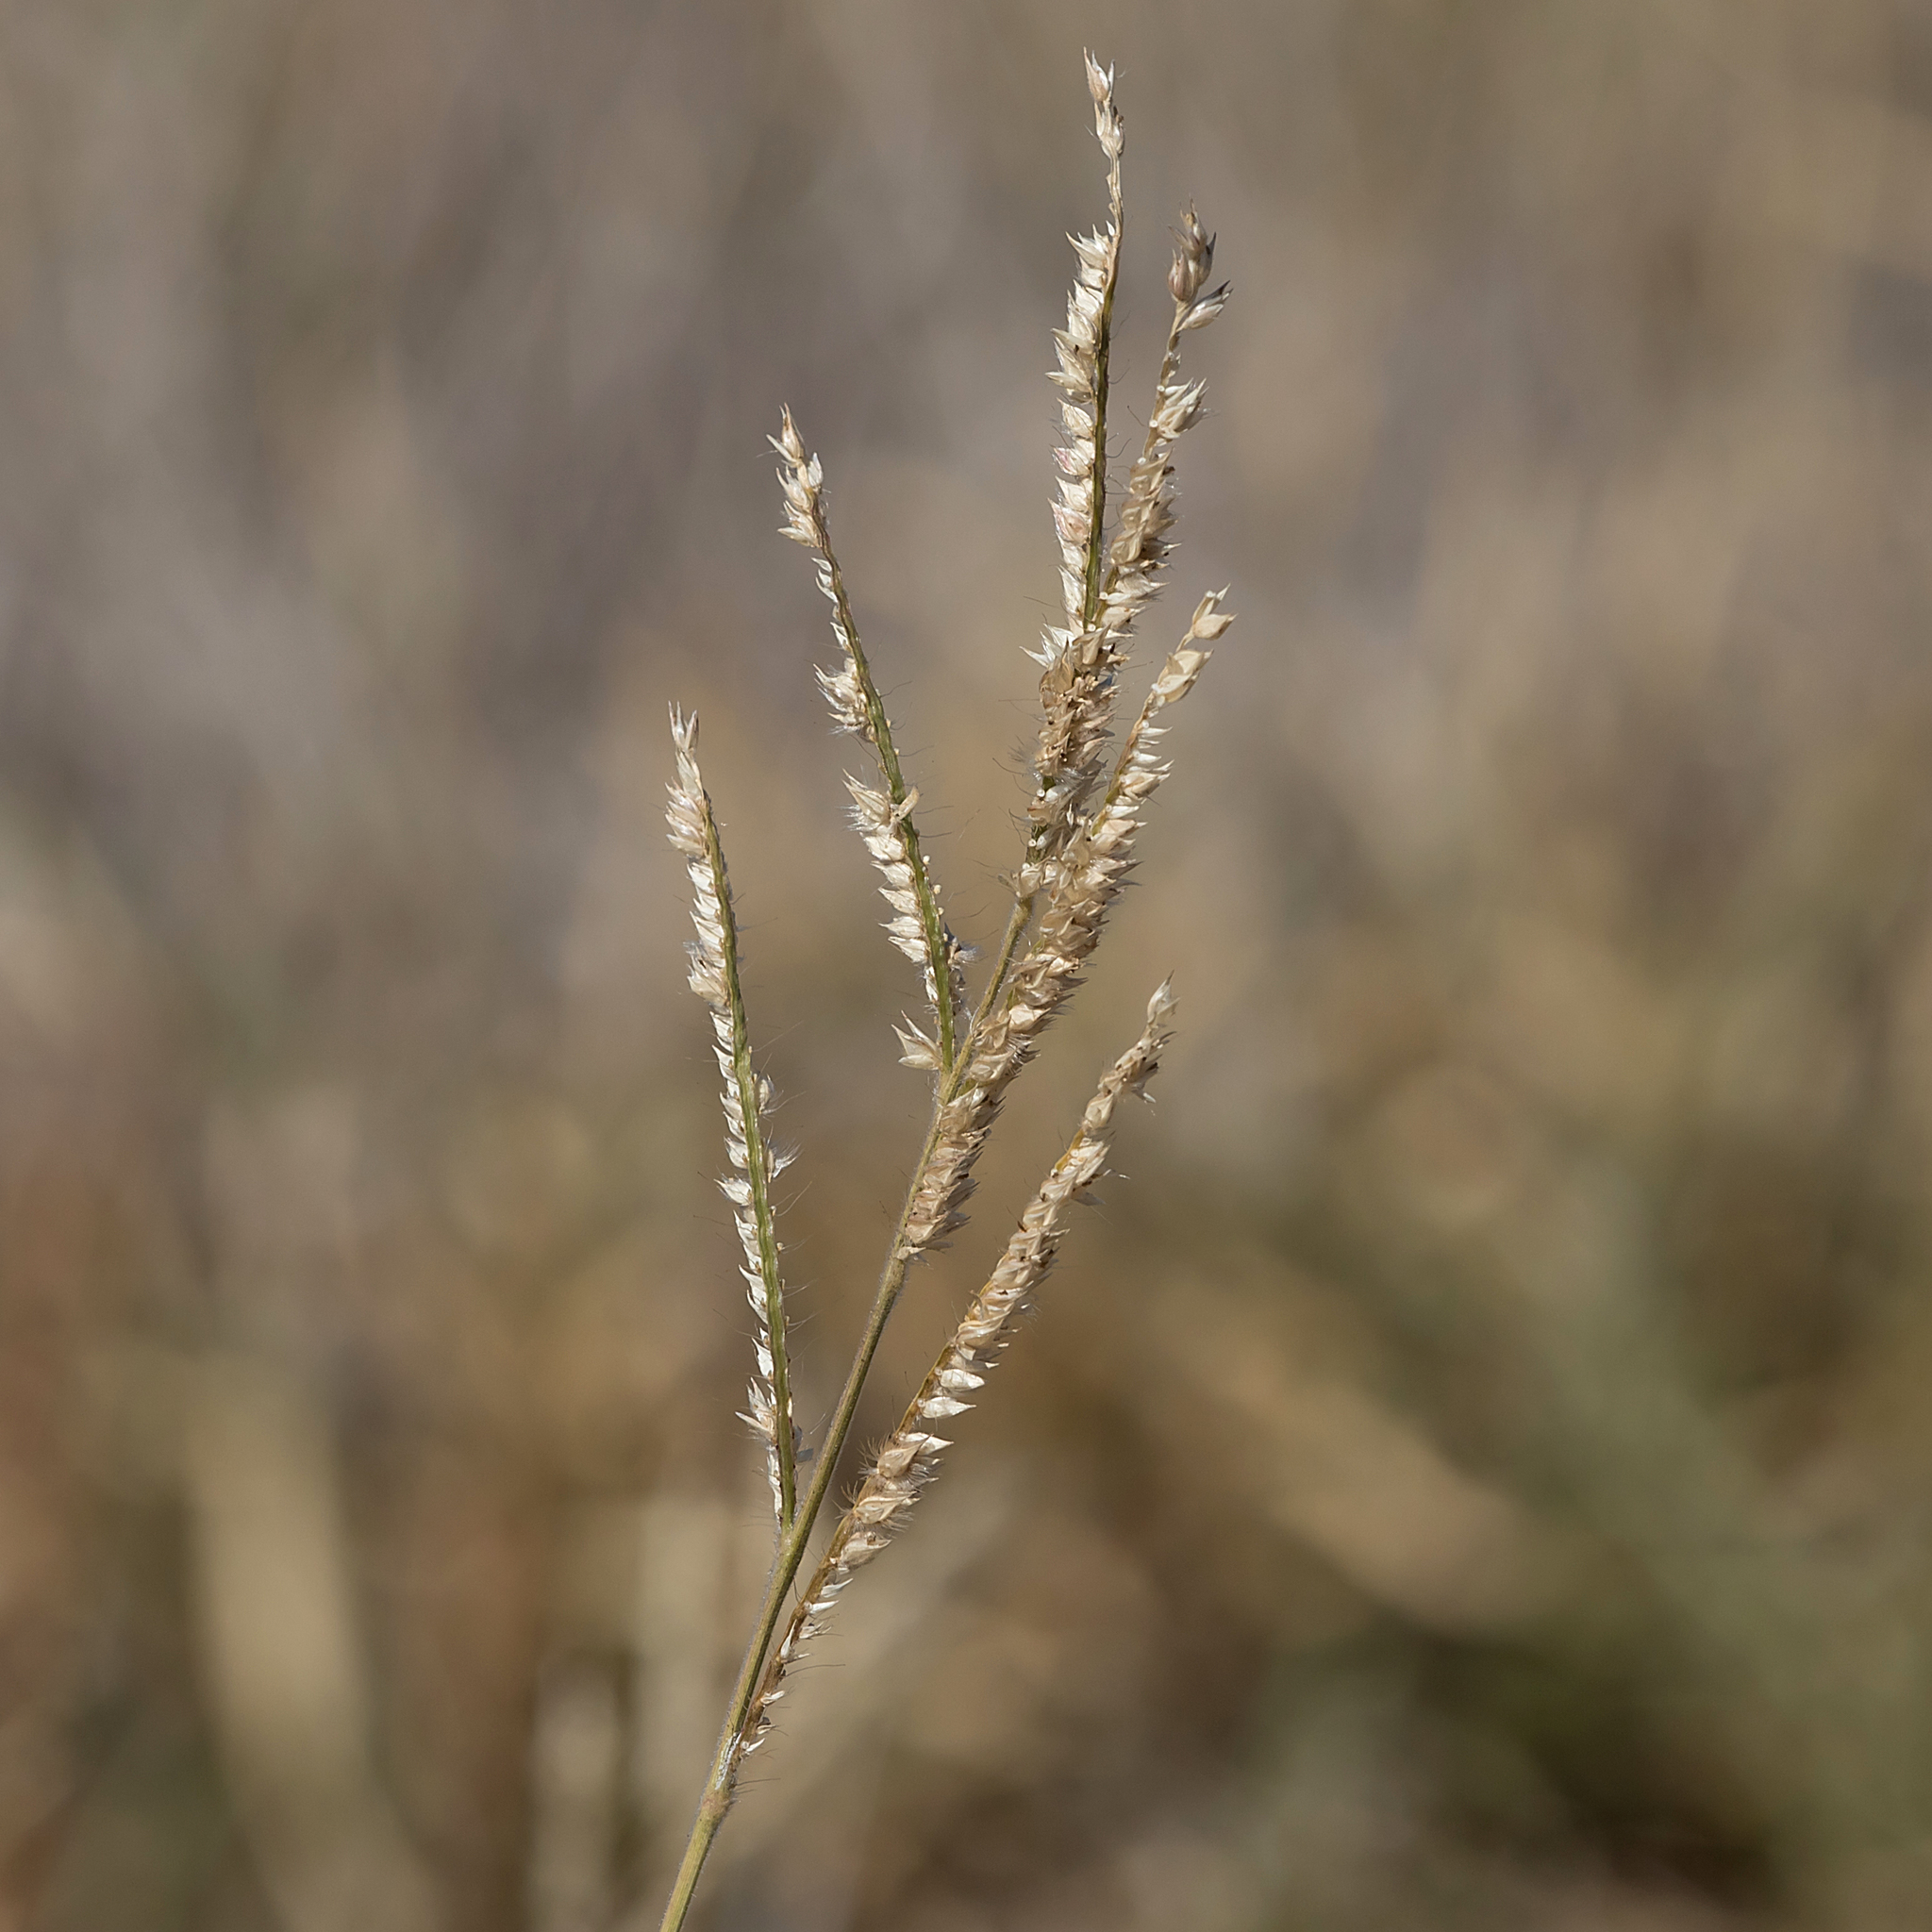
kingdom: Plantae
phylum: Tracheophyta
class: Liliopsida
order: Poales
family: Poaceae
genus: Urochloa
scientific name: Urochloa trichopus
